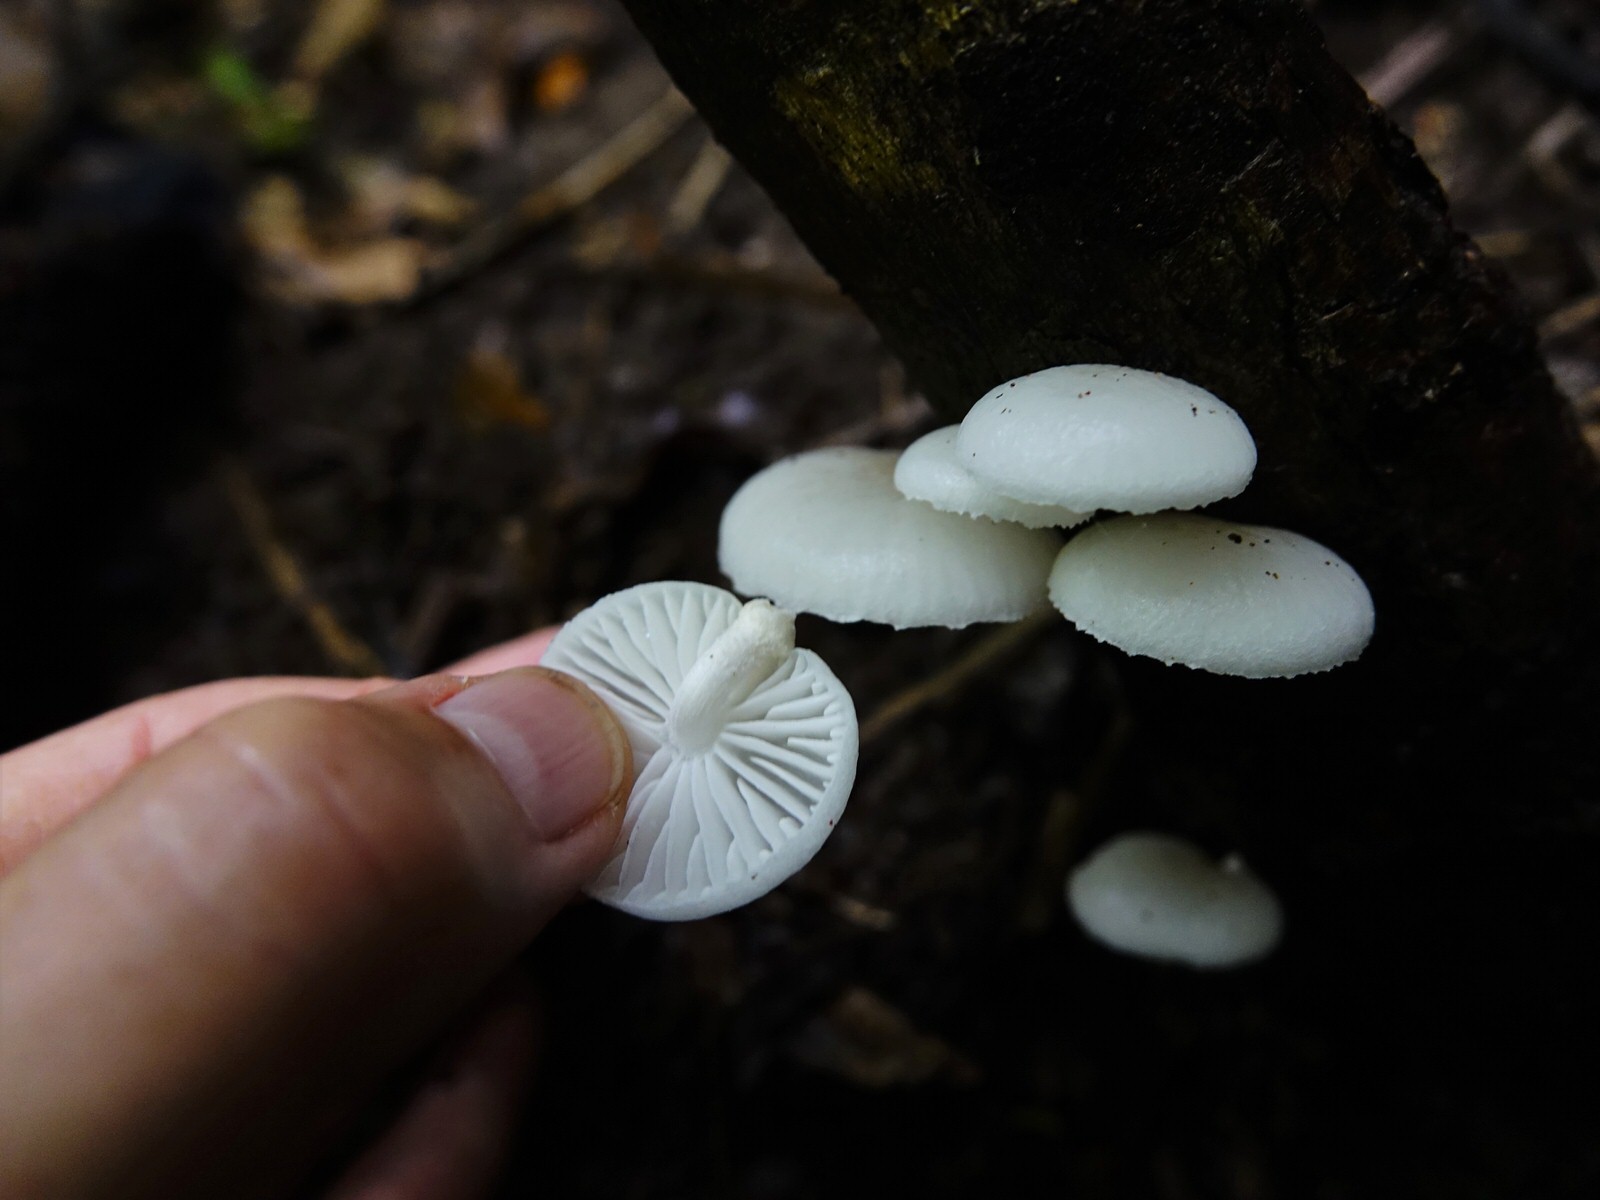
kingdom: Fungi
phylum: Basidiomycota
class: Agaricomycetes
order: Agaricales
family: Physalacriaceae
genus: Oudemansiella
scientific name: Oudemansiella australis
